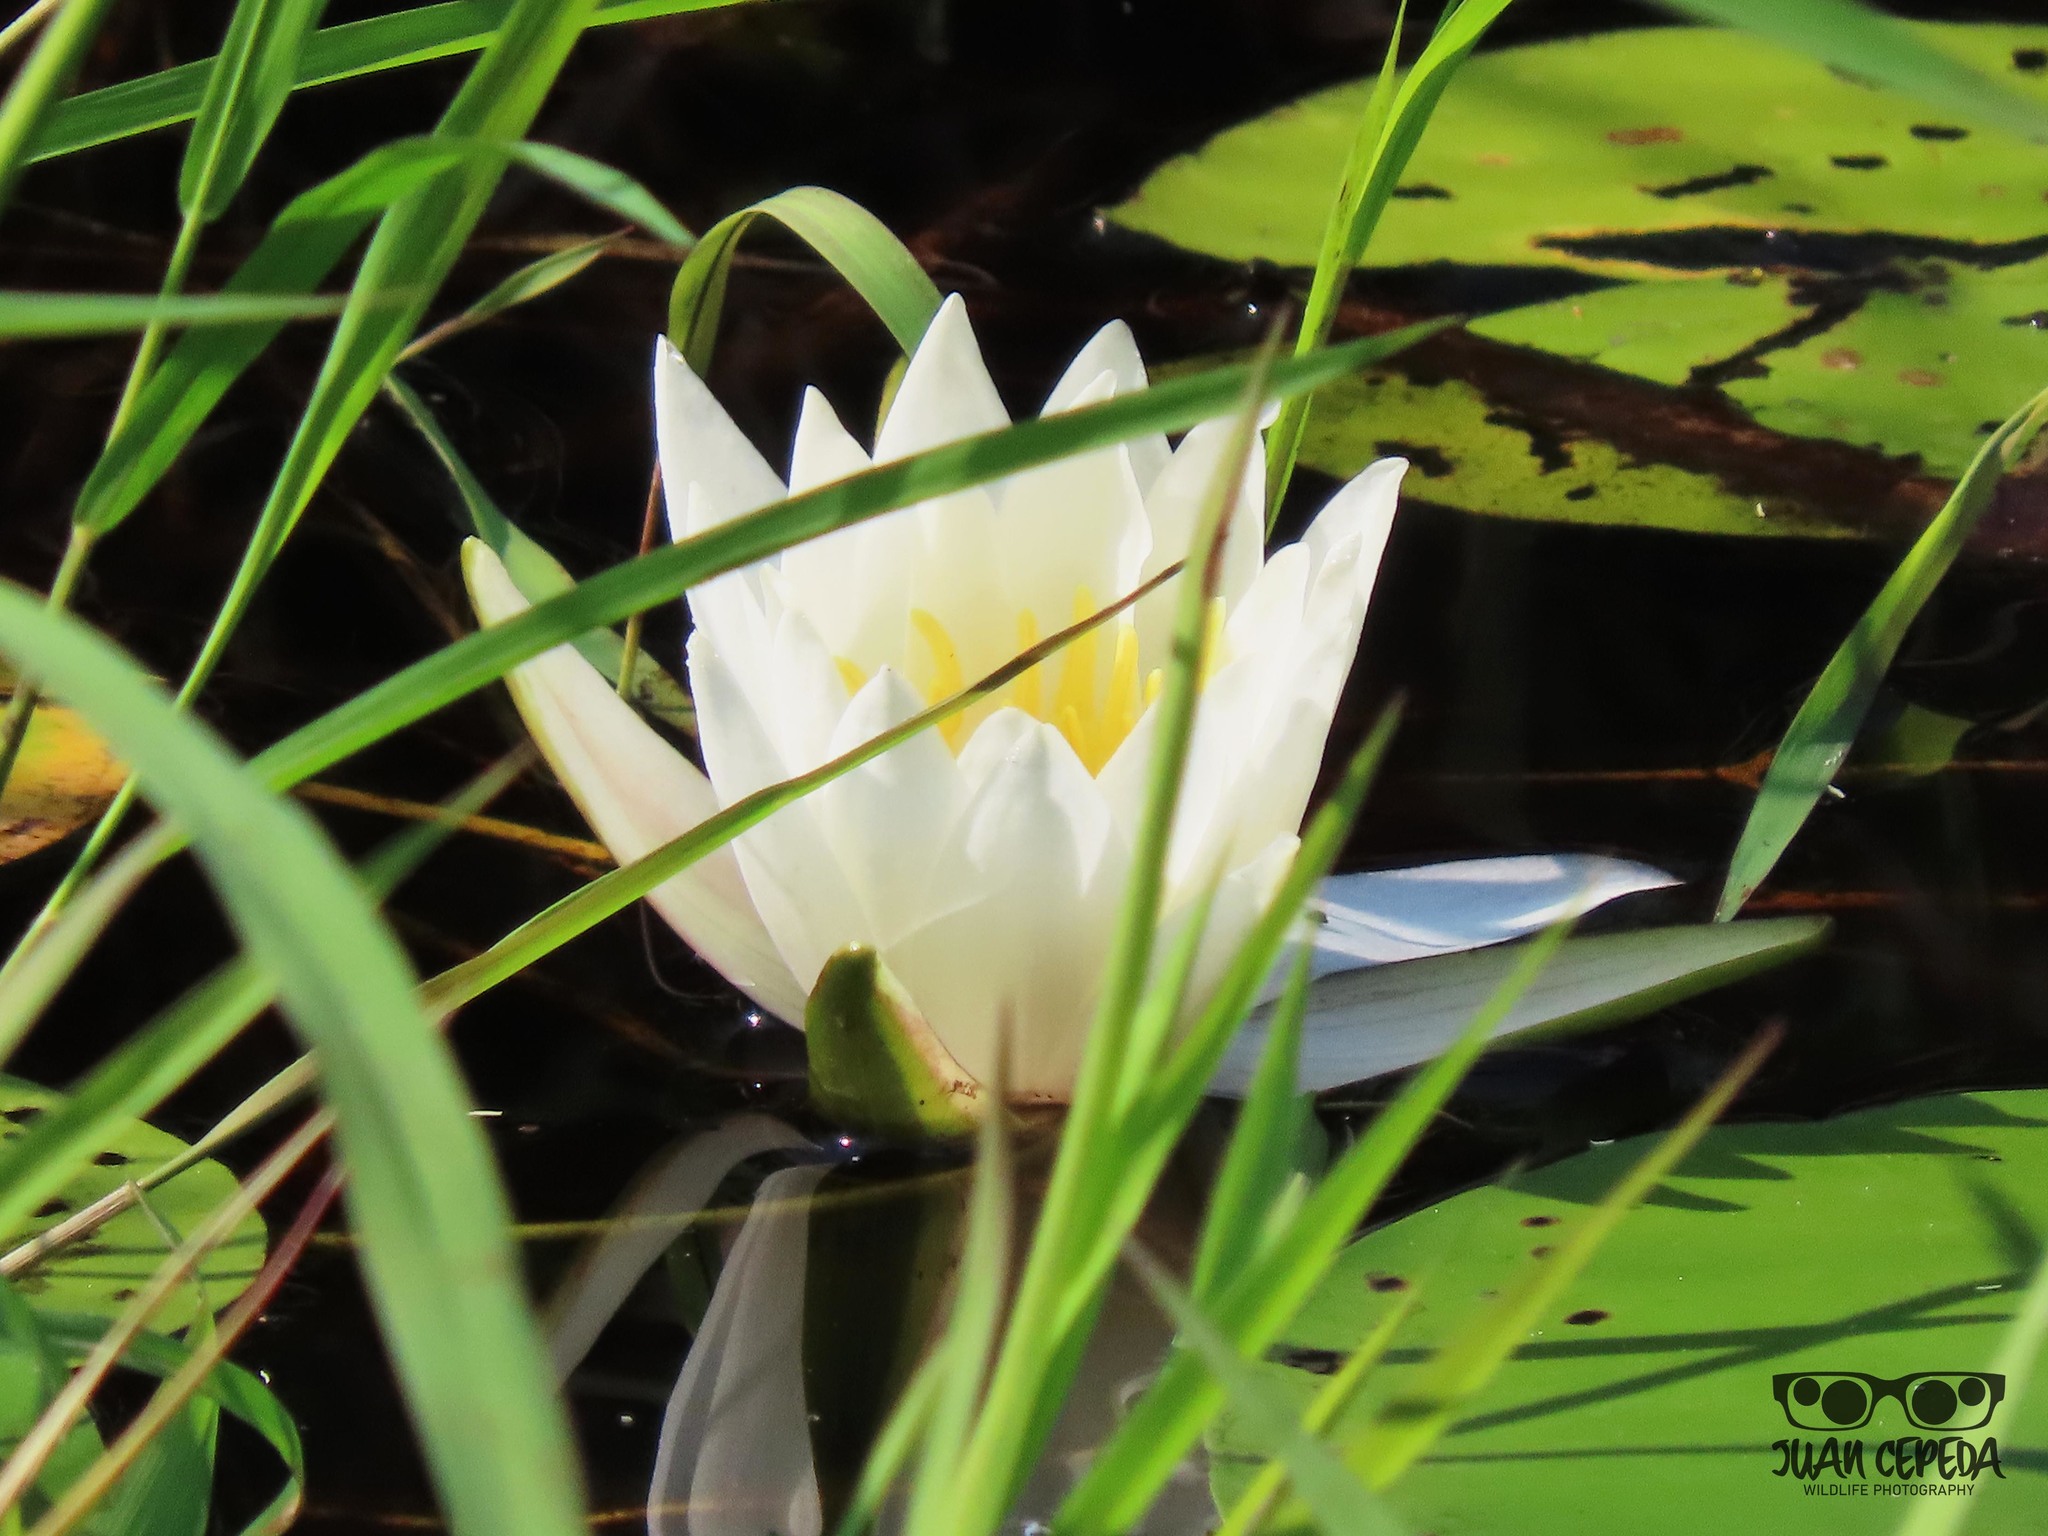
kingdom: Plantae
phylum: Tracheophyta
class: Magnoliopsida
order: Nymphaeales
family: Nymphaeaceae
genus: Nymphaea
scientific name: Nymphaea odorata
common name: Fragrant water-lily
